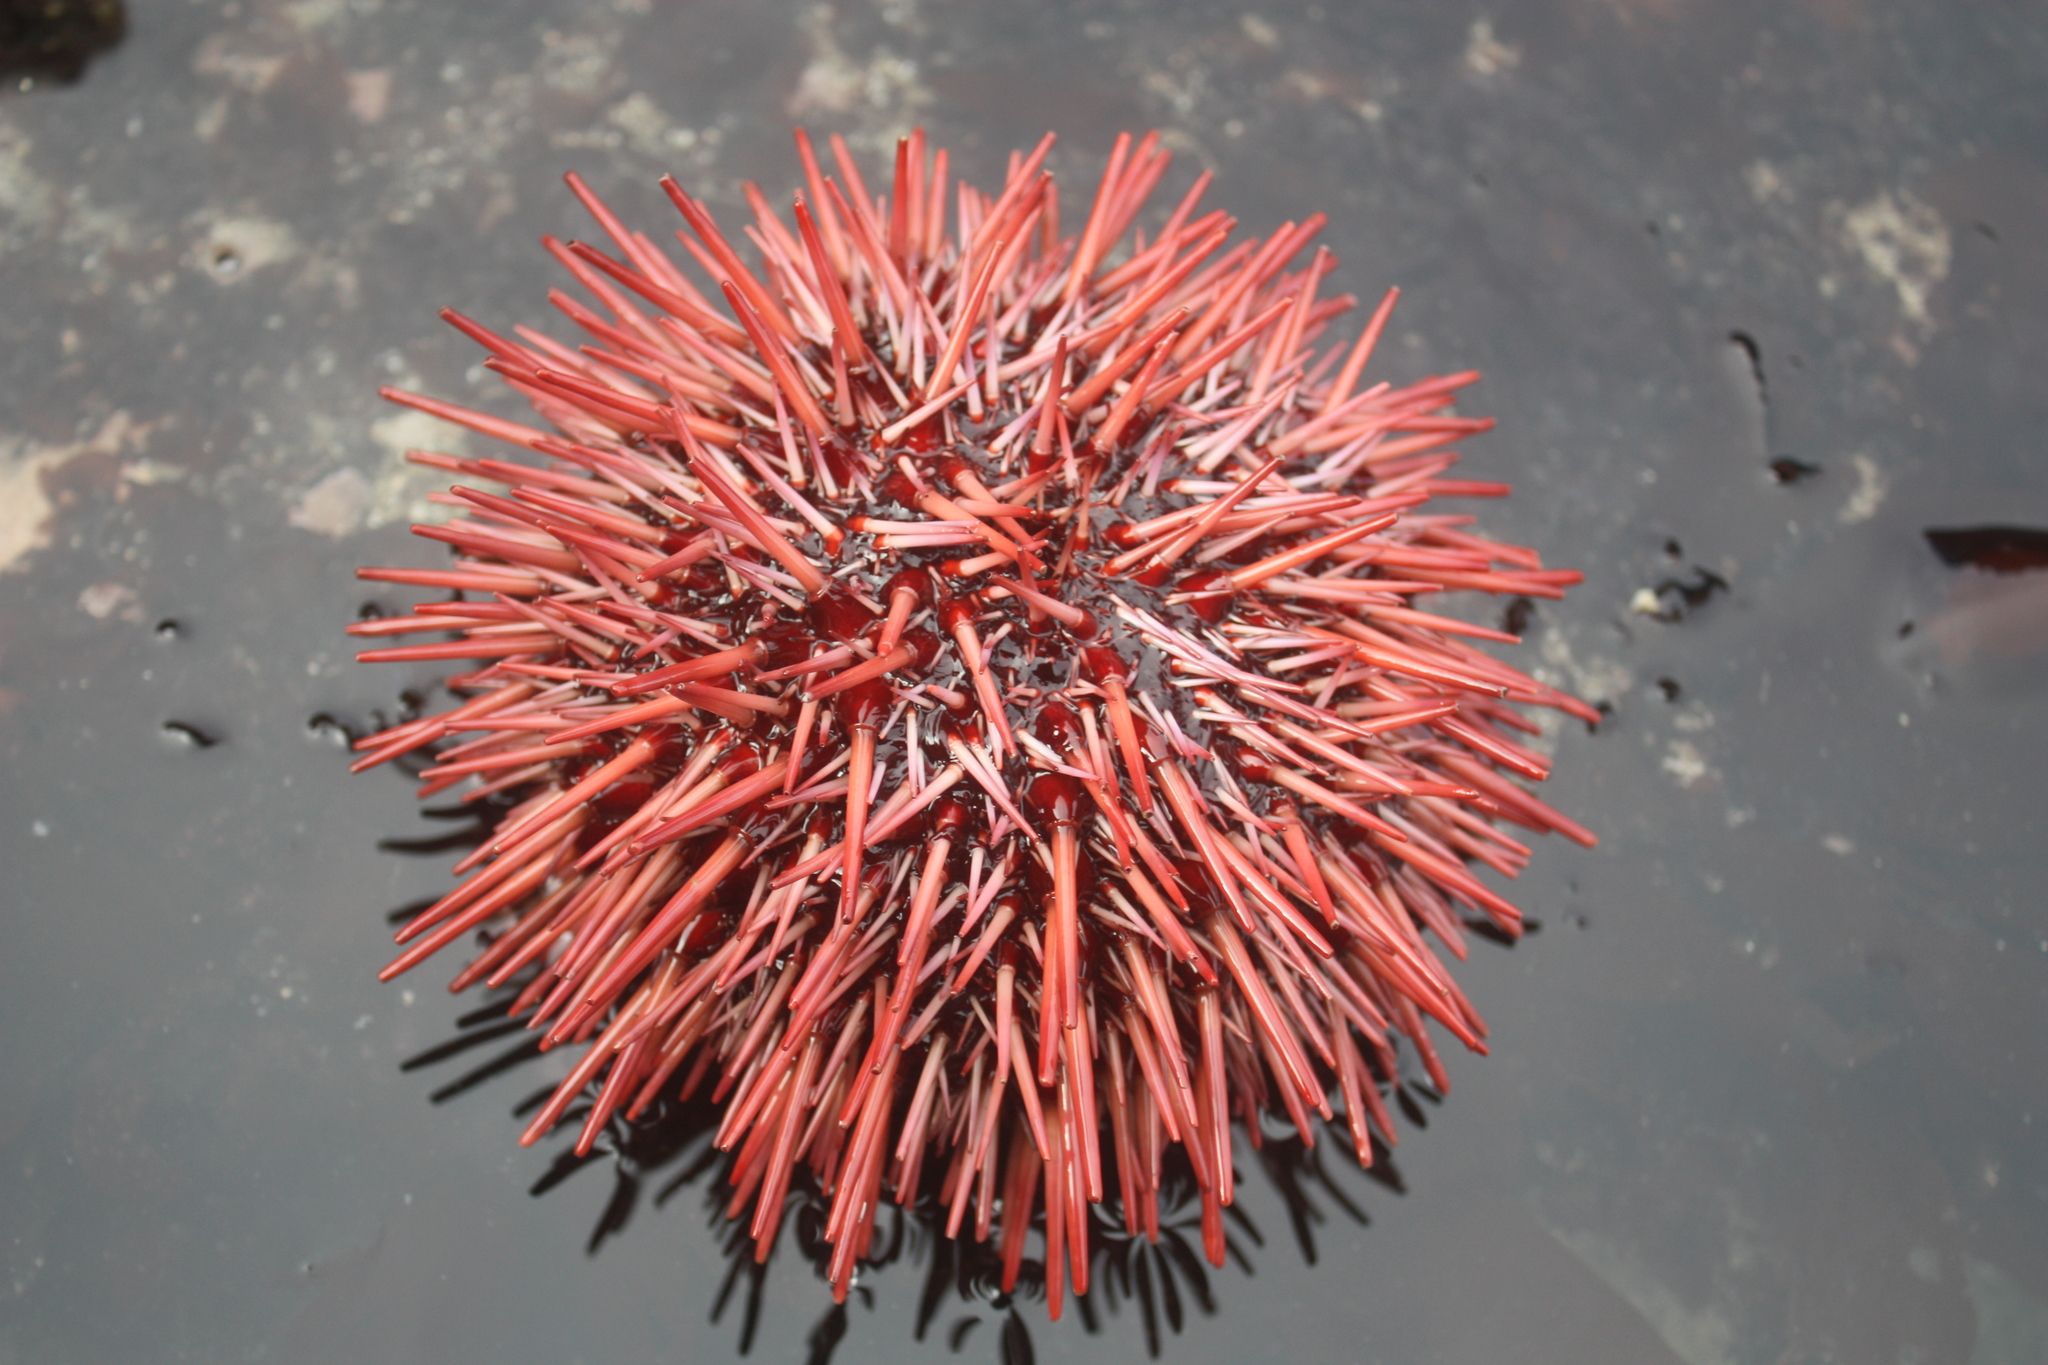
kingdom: Animalia
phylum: Echinodermata
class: Echinoidea
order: Camarodonta
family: Strongylocentrotidae
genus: Mesocentrotus
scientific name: Mesocentrotus franciscanus
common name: Red sea urchin
